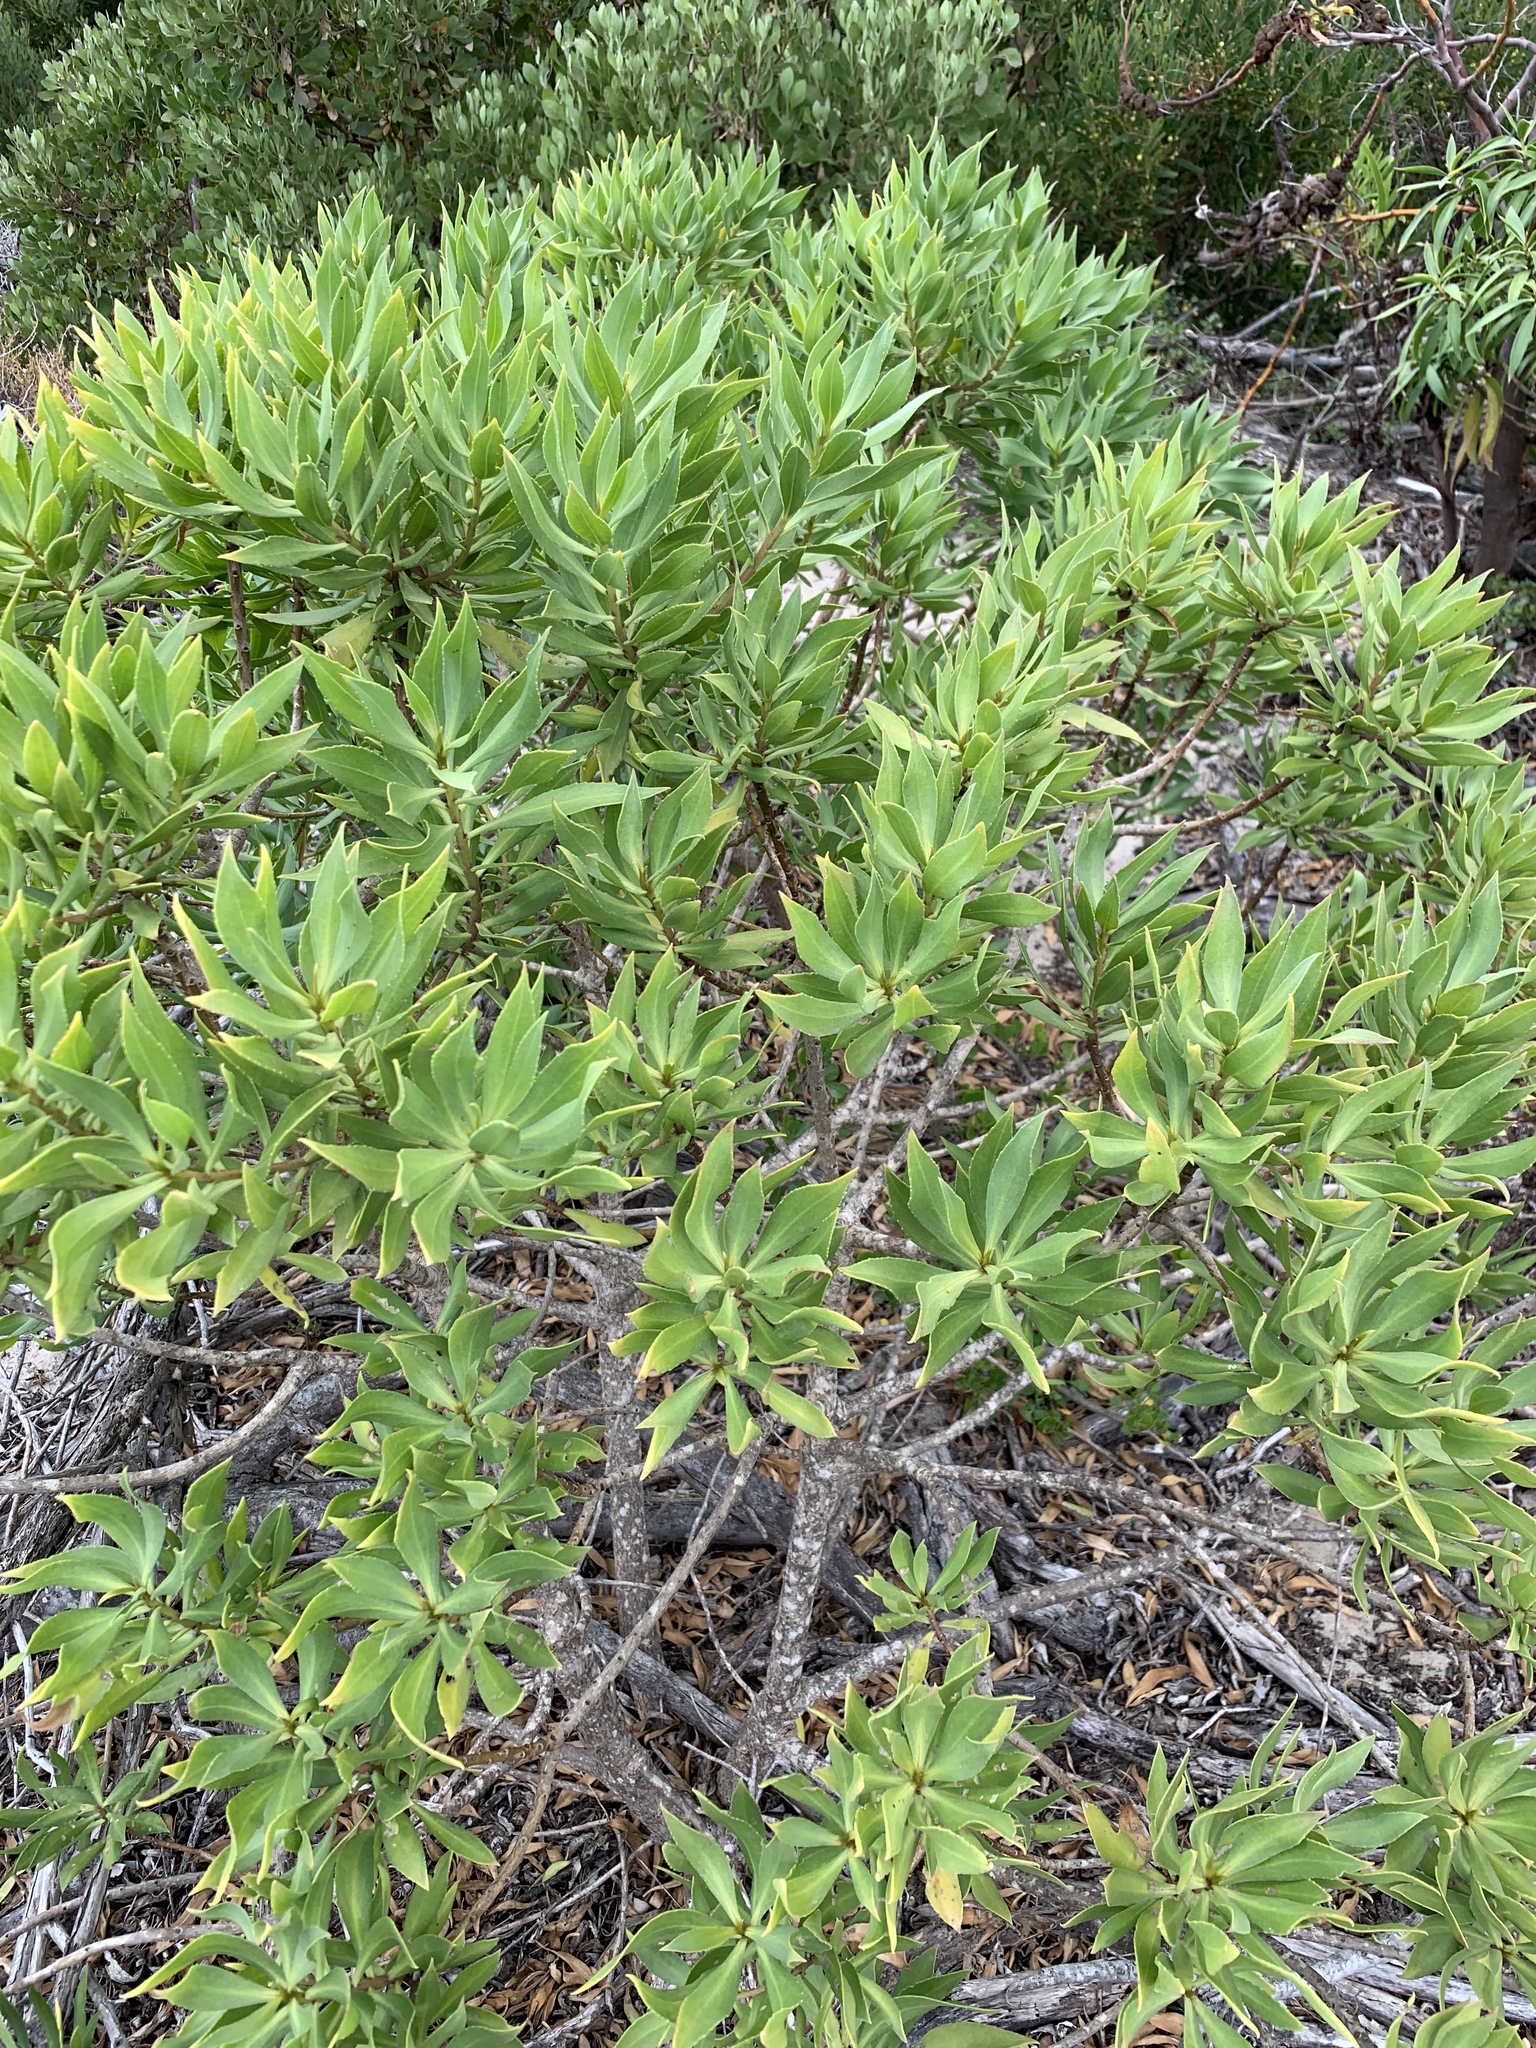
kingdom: Plantae
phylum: Tracheophyta
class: Magnoliopsida
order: Lamiales
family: Scrophulariaceae
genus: Myoporum
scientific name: Myoporum insulare
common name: Common boobialla
